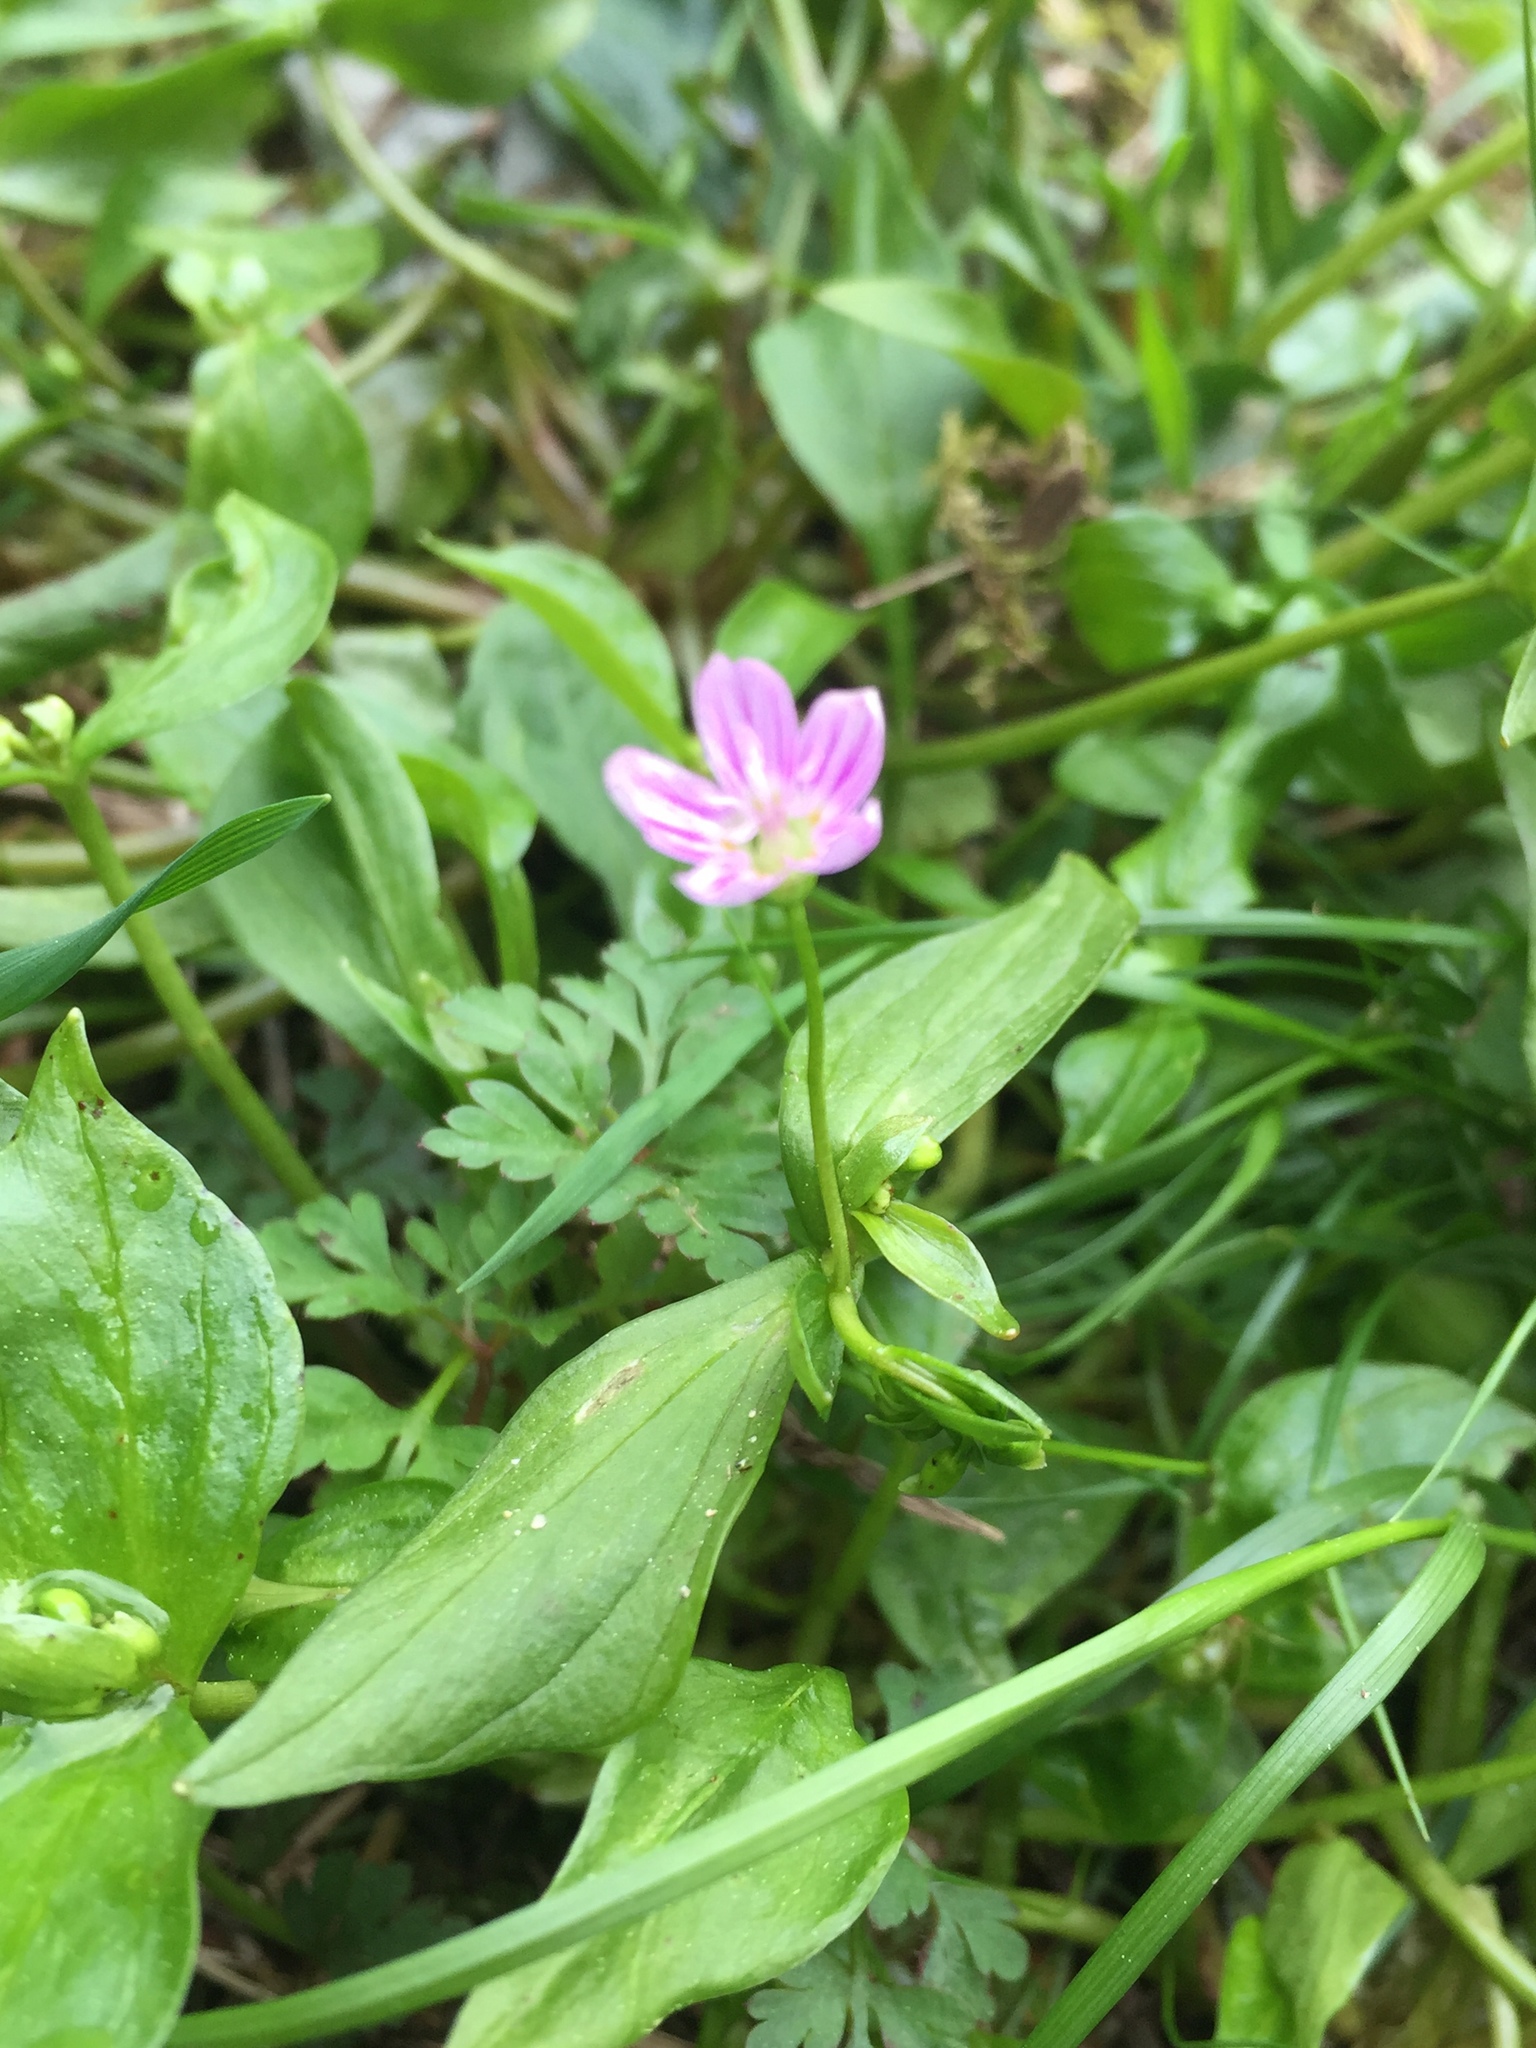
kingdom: Plantae
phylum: Tracheophyta
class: Magnoliopsida
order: Caryophyllales
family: Montiaceae
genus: Claytonia
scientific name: Claytonia sibirica
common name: Pink purslane
